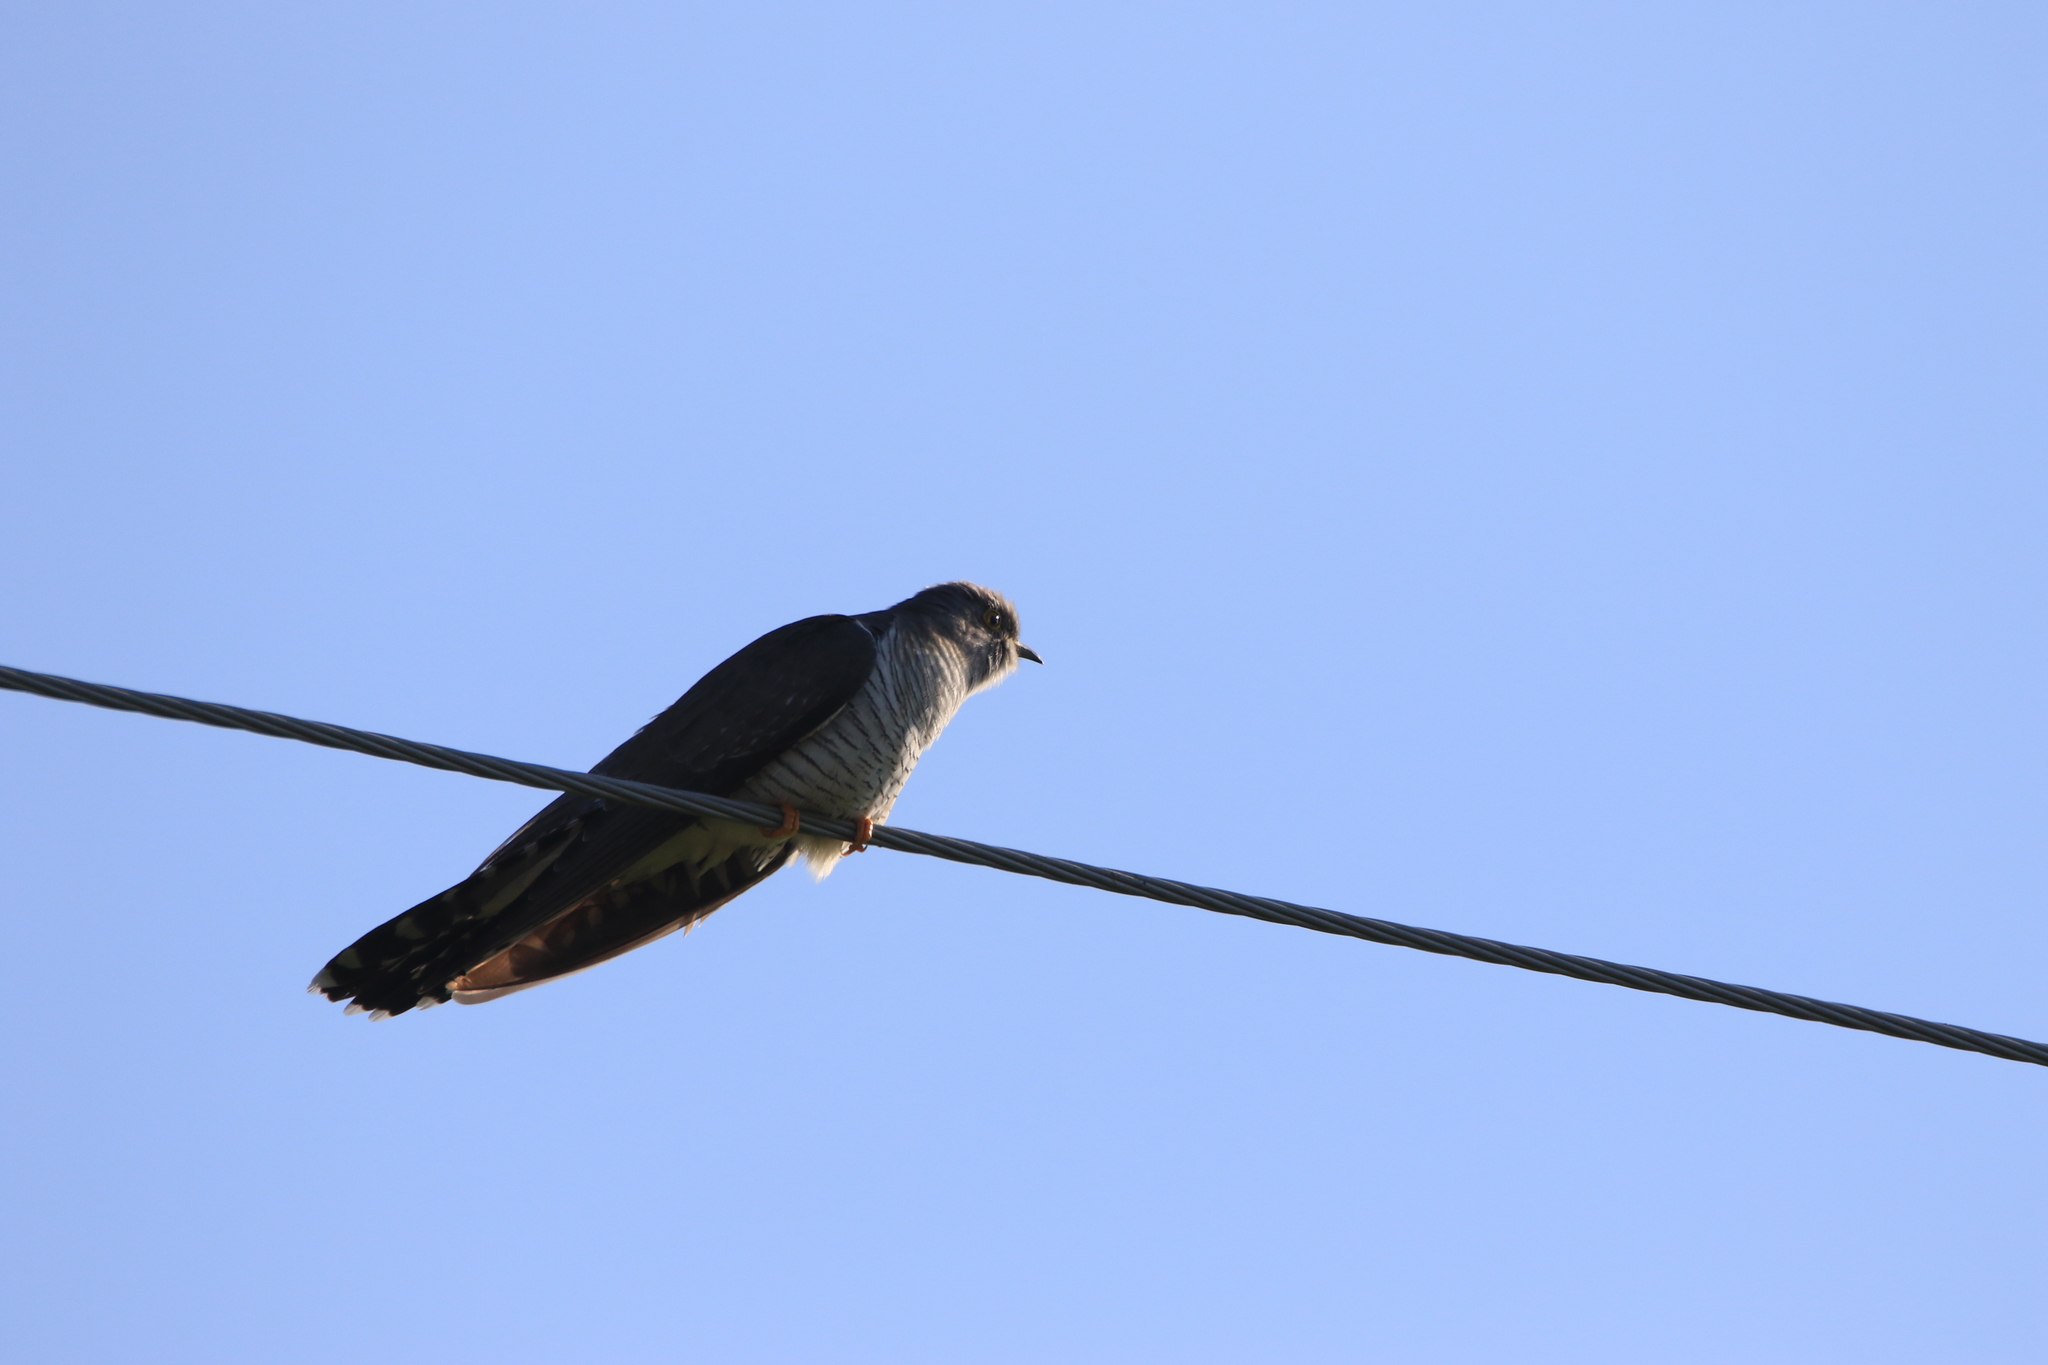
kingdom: Animalia
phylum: Chordata
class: Aves
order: Cuculiformes
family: Cuculidae
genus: Cuculus
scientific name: Cuculus canorus
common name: Common cuckoo
